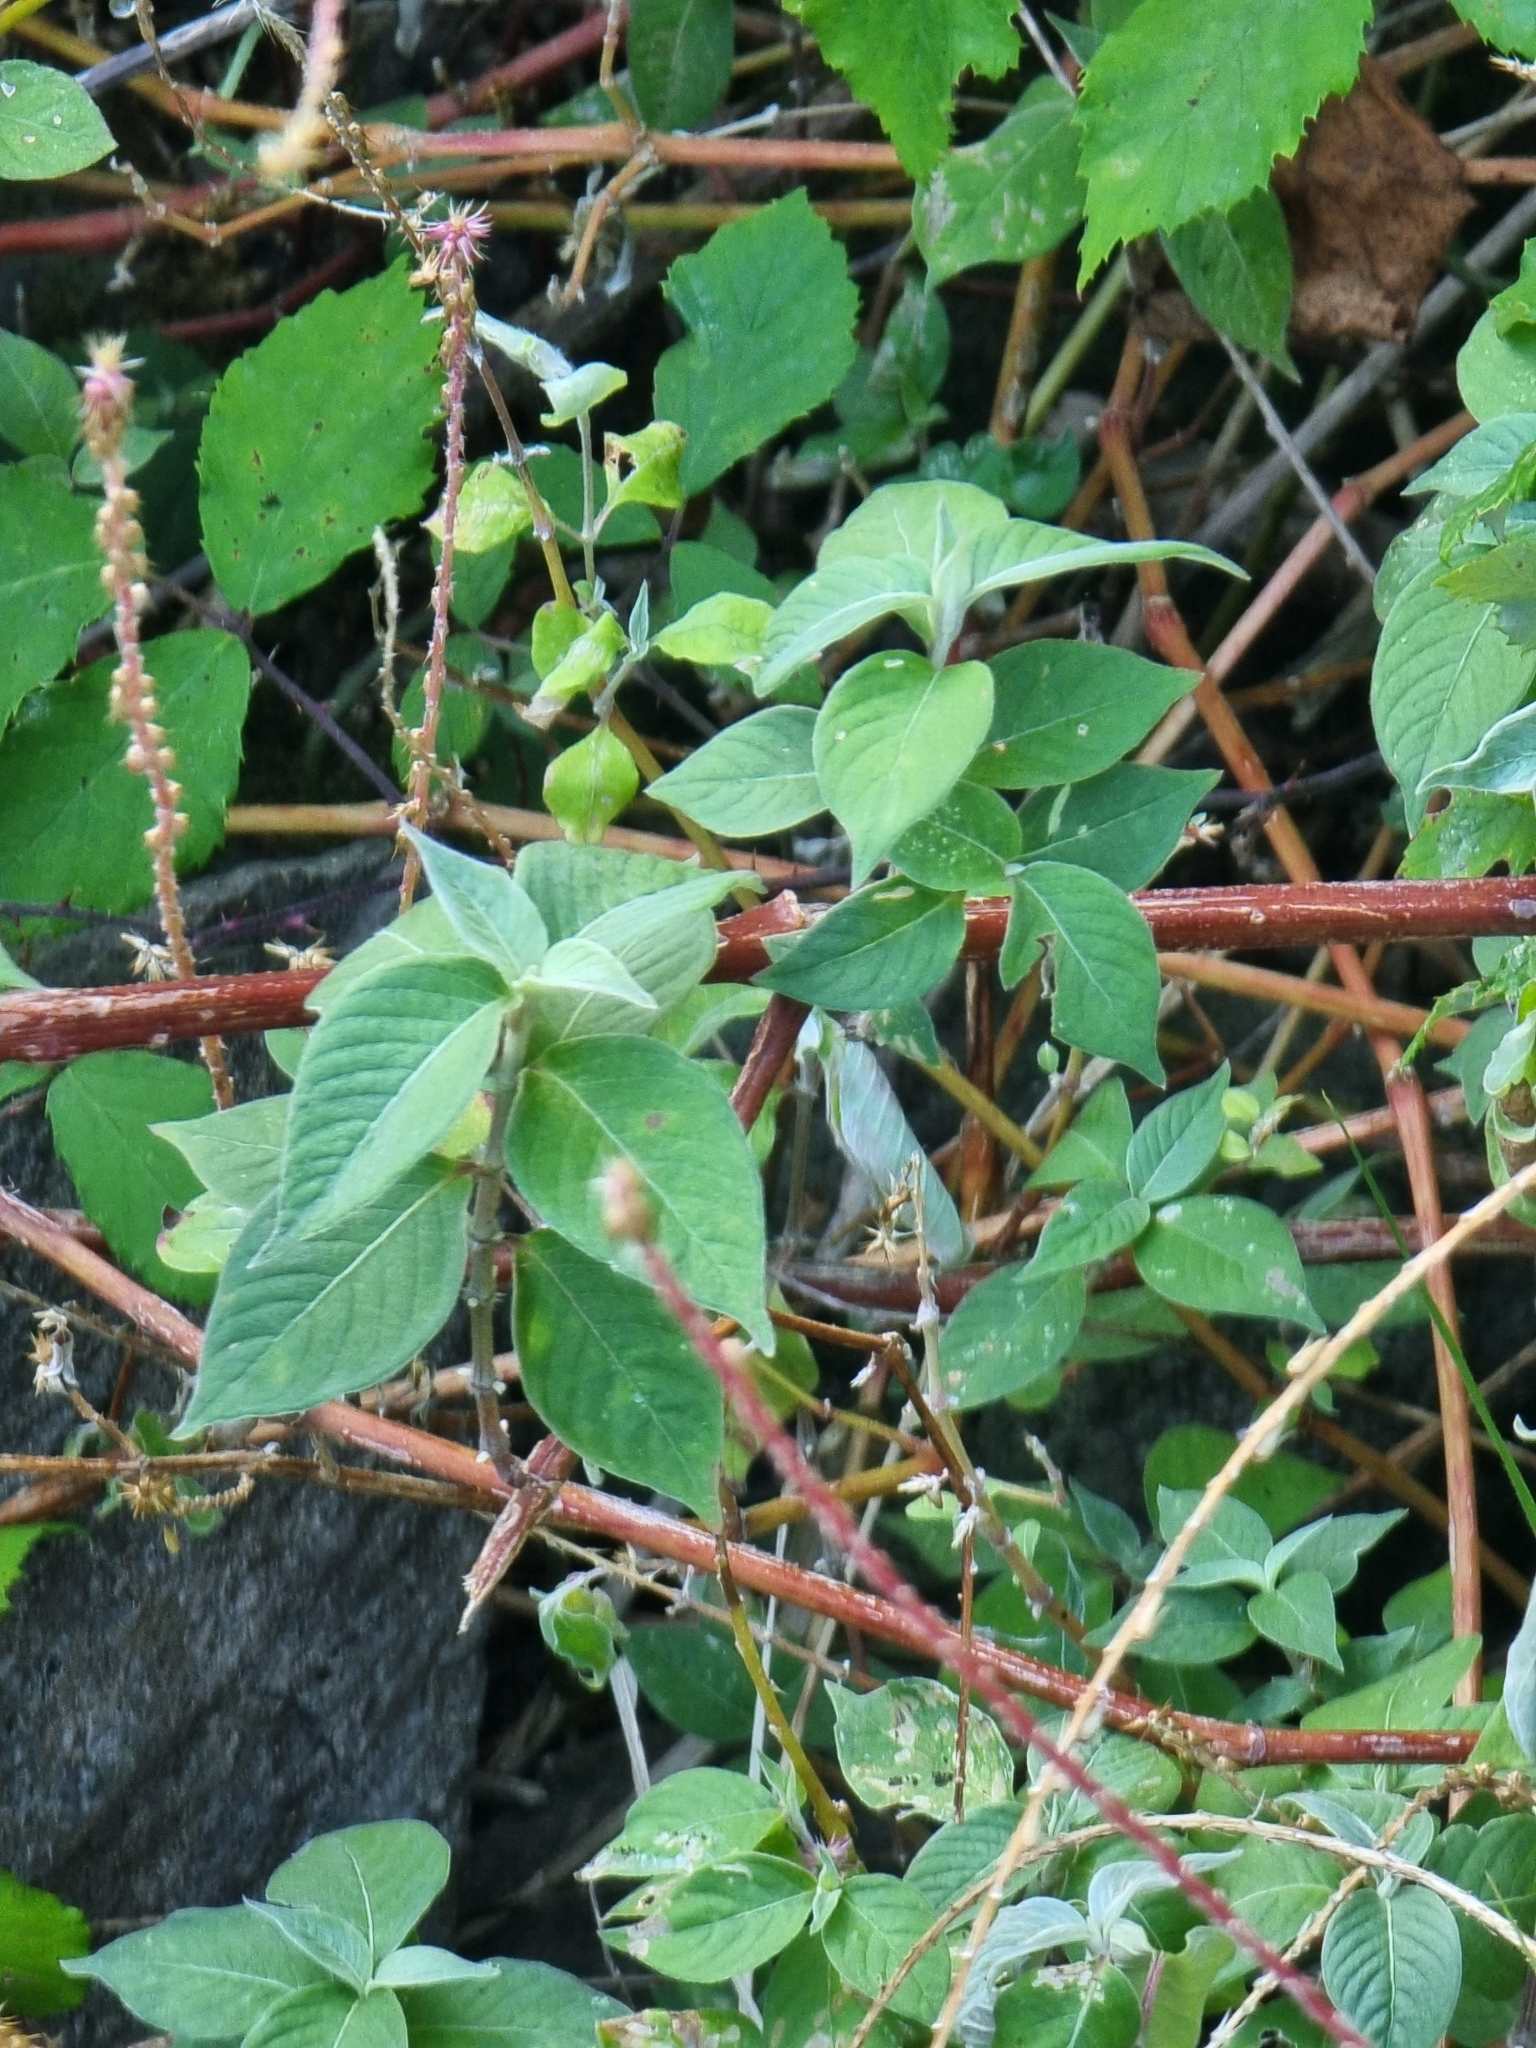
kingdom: Plantae
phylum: Tracheophyta
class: Magnoliopsida
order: Caryophyllales
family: Amaranthaceae
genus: Achyranthes
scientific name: Achyranthes aspera
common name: Devil's horsewhip
